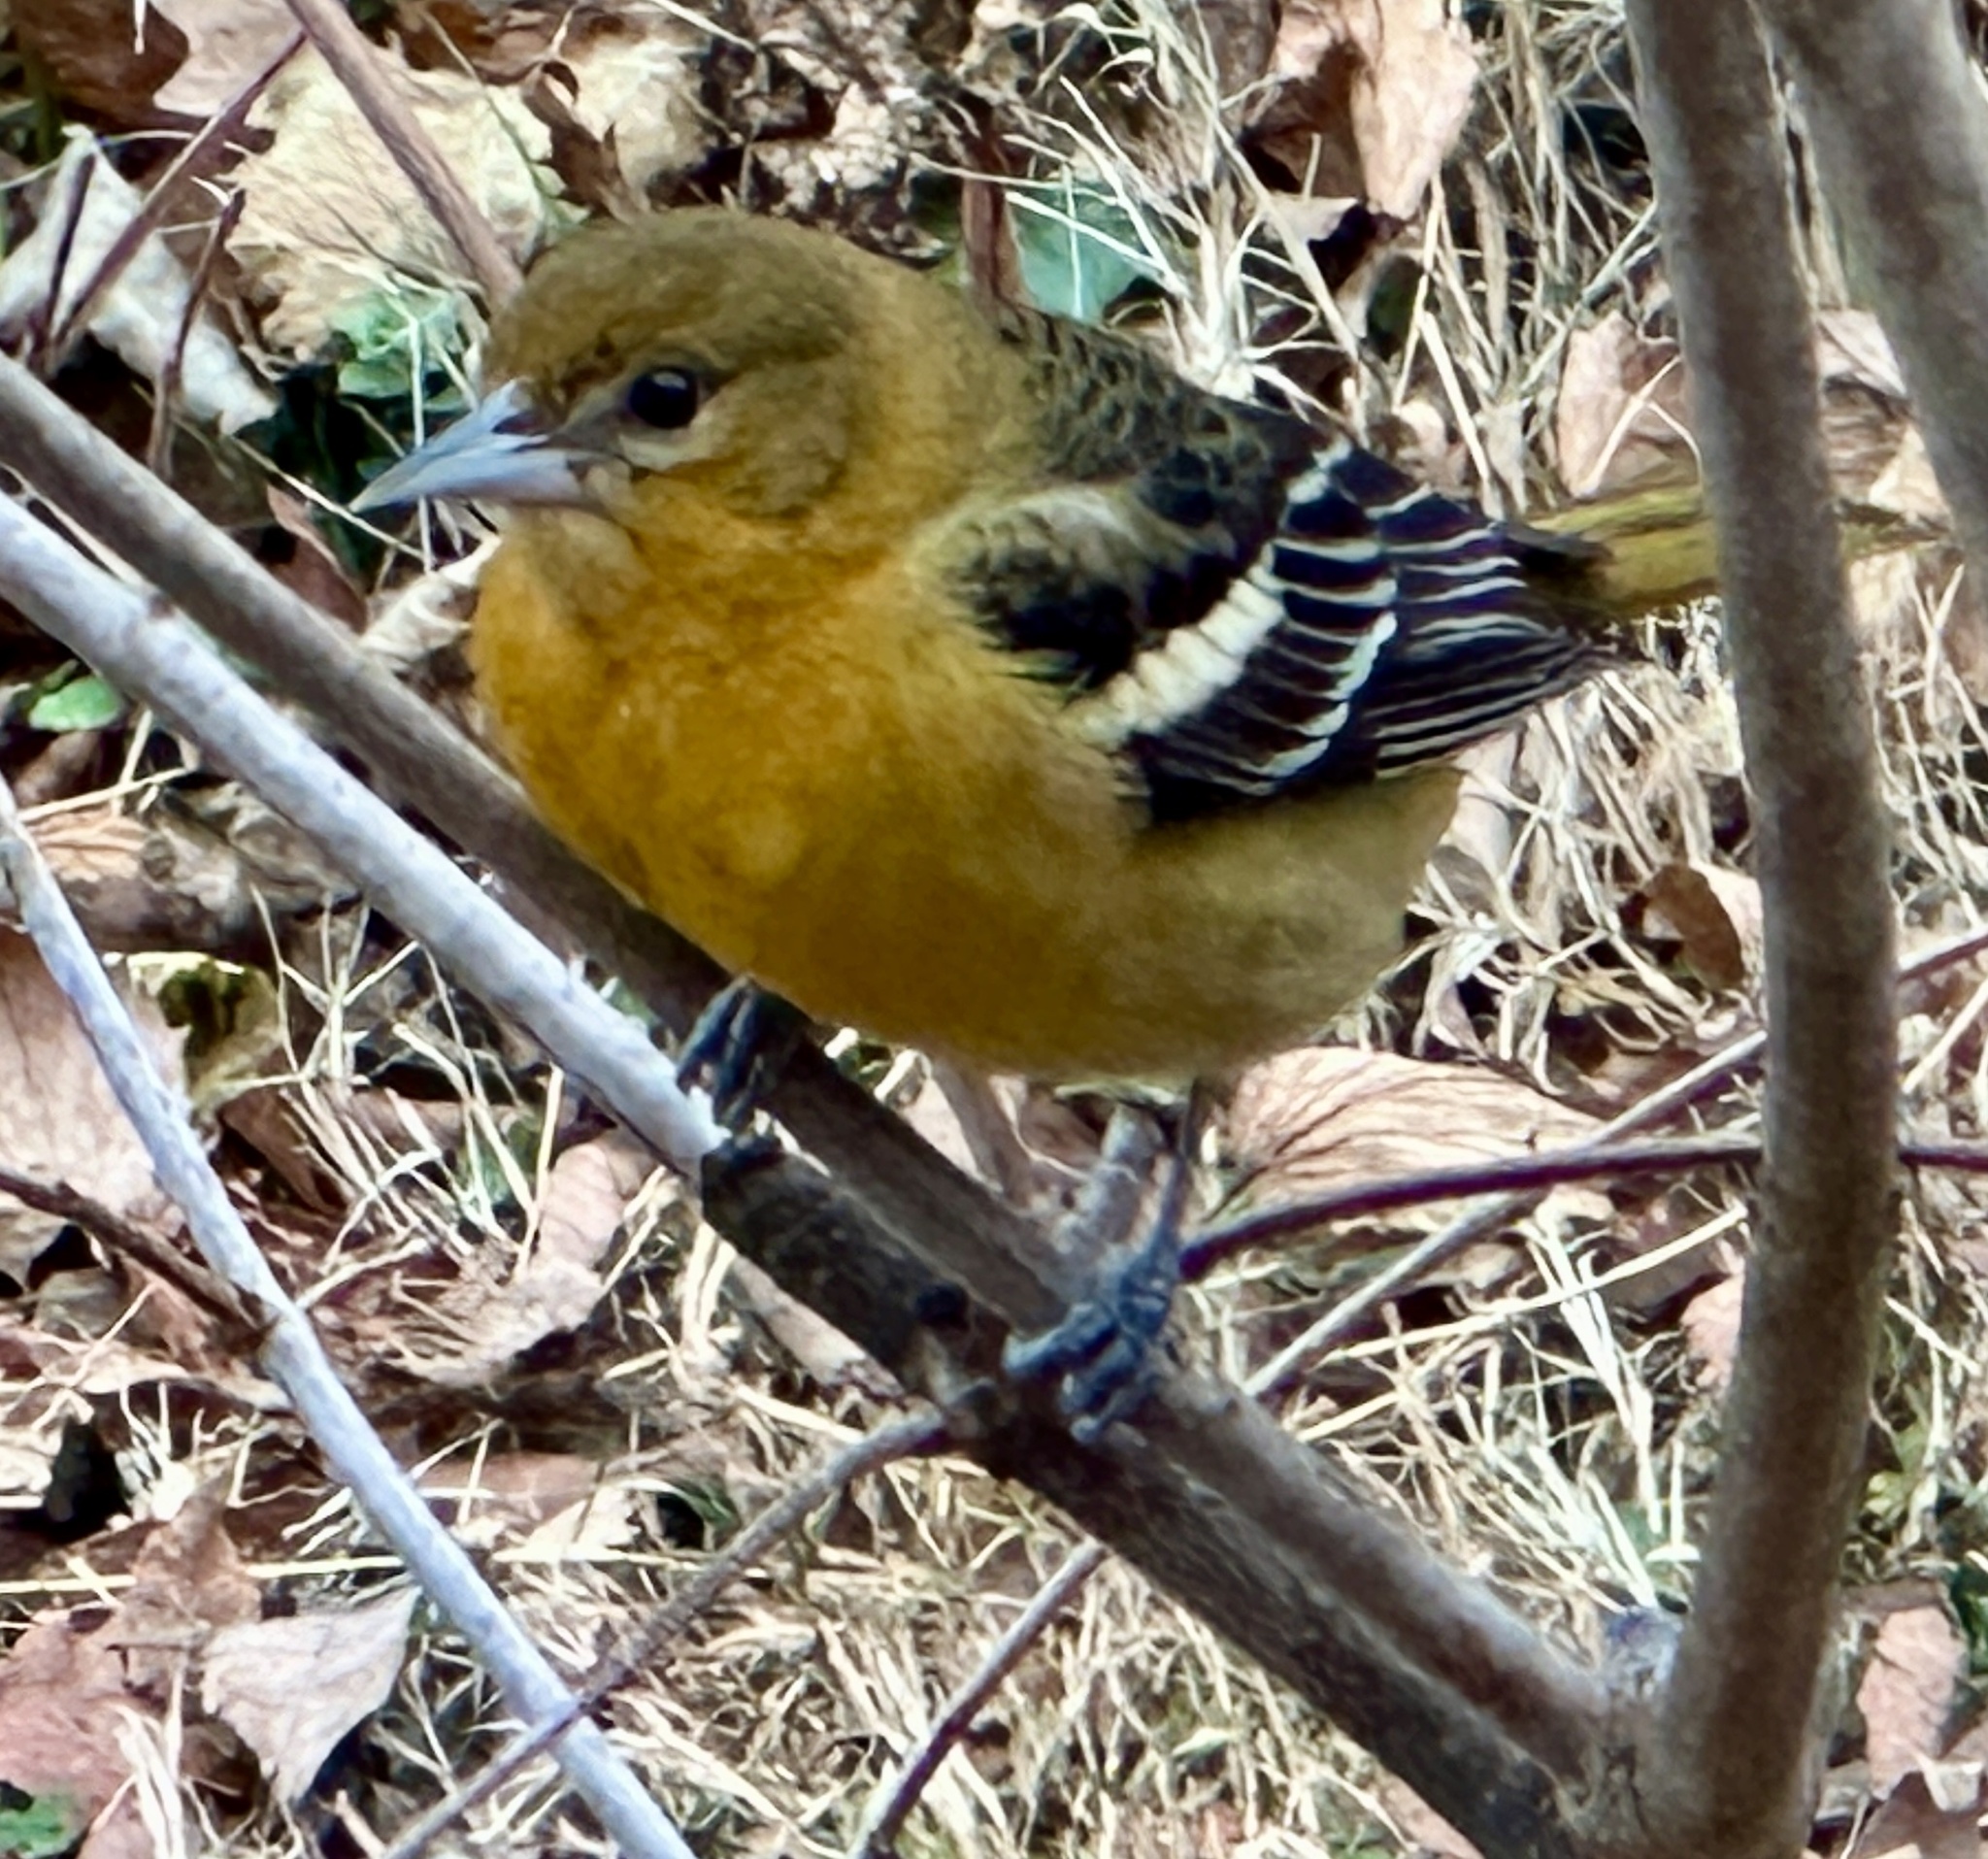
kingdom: Animalia
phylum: Chordata
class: Aves
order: Passeriformes
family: Icteridae
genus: Icterus
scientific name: Icterus galbula
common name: Baltimore oriole
